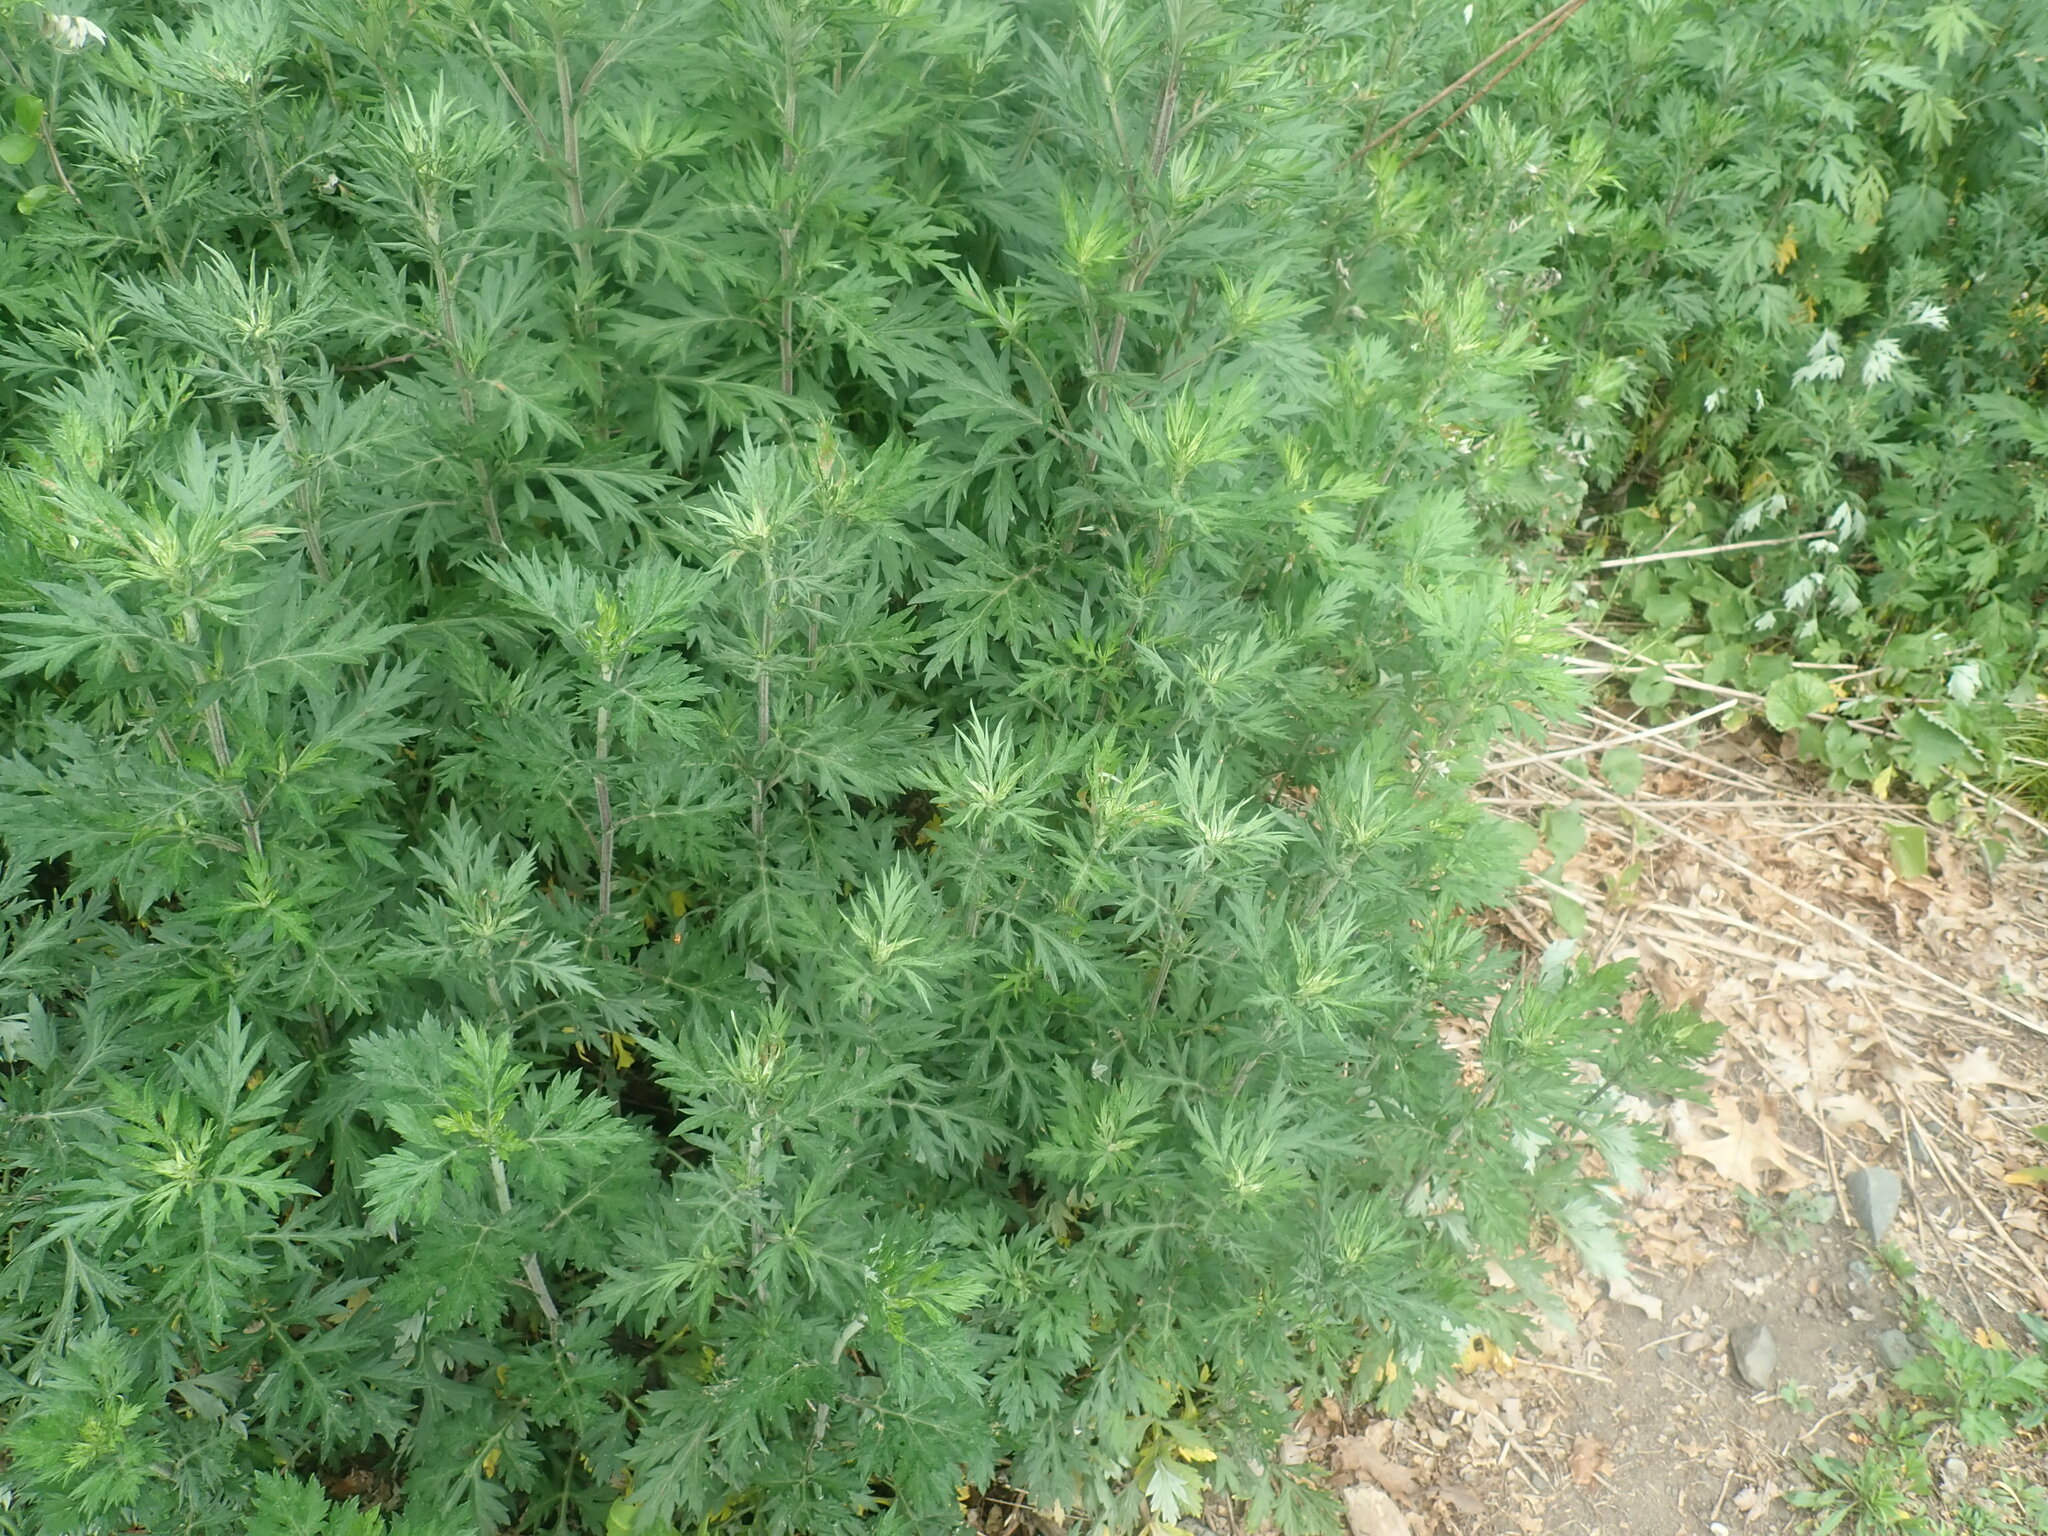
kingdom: Plantae
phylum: Tracheophyta
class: Magnoliopsida
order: Asterales
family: Asteraceae
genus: Artemisia
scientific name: Artemisia vulgaris
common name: Mugwort
